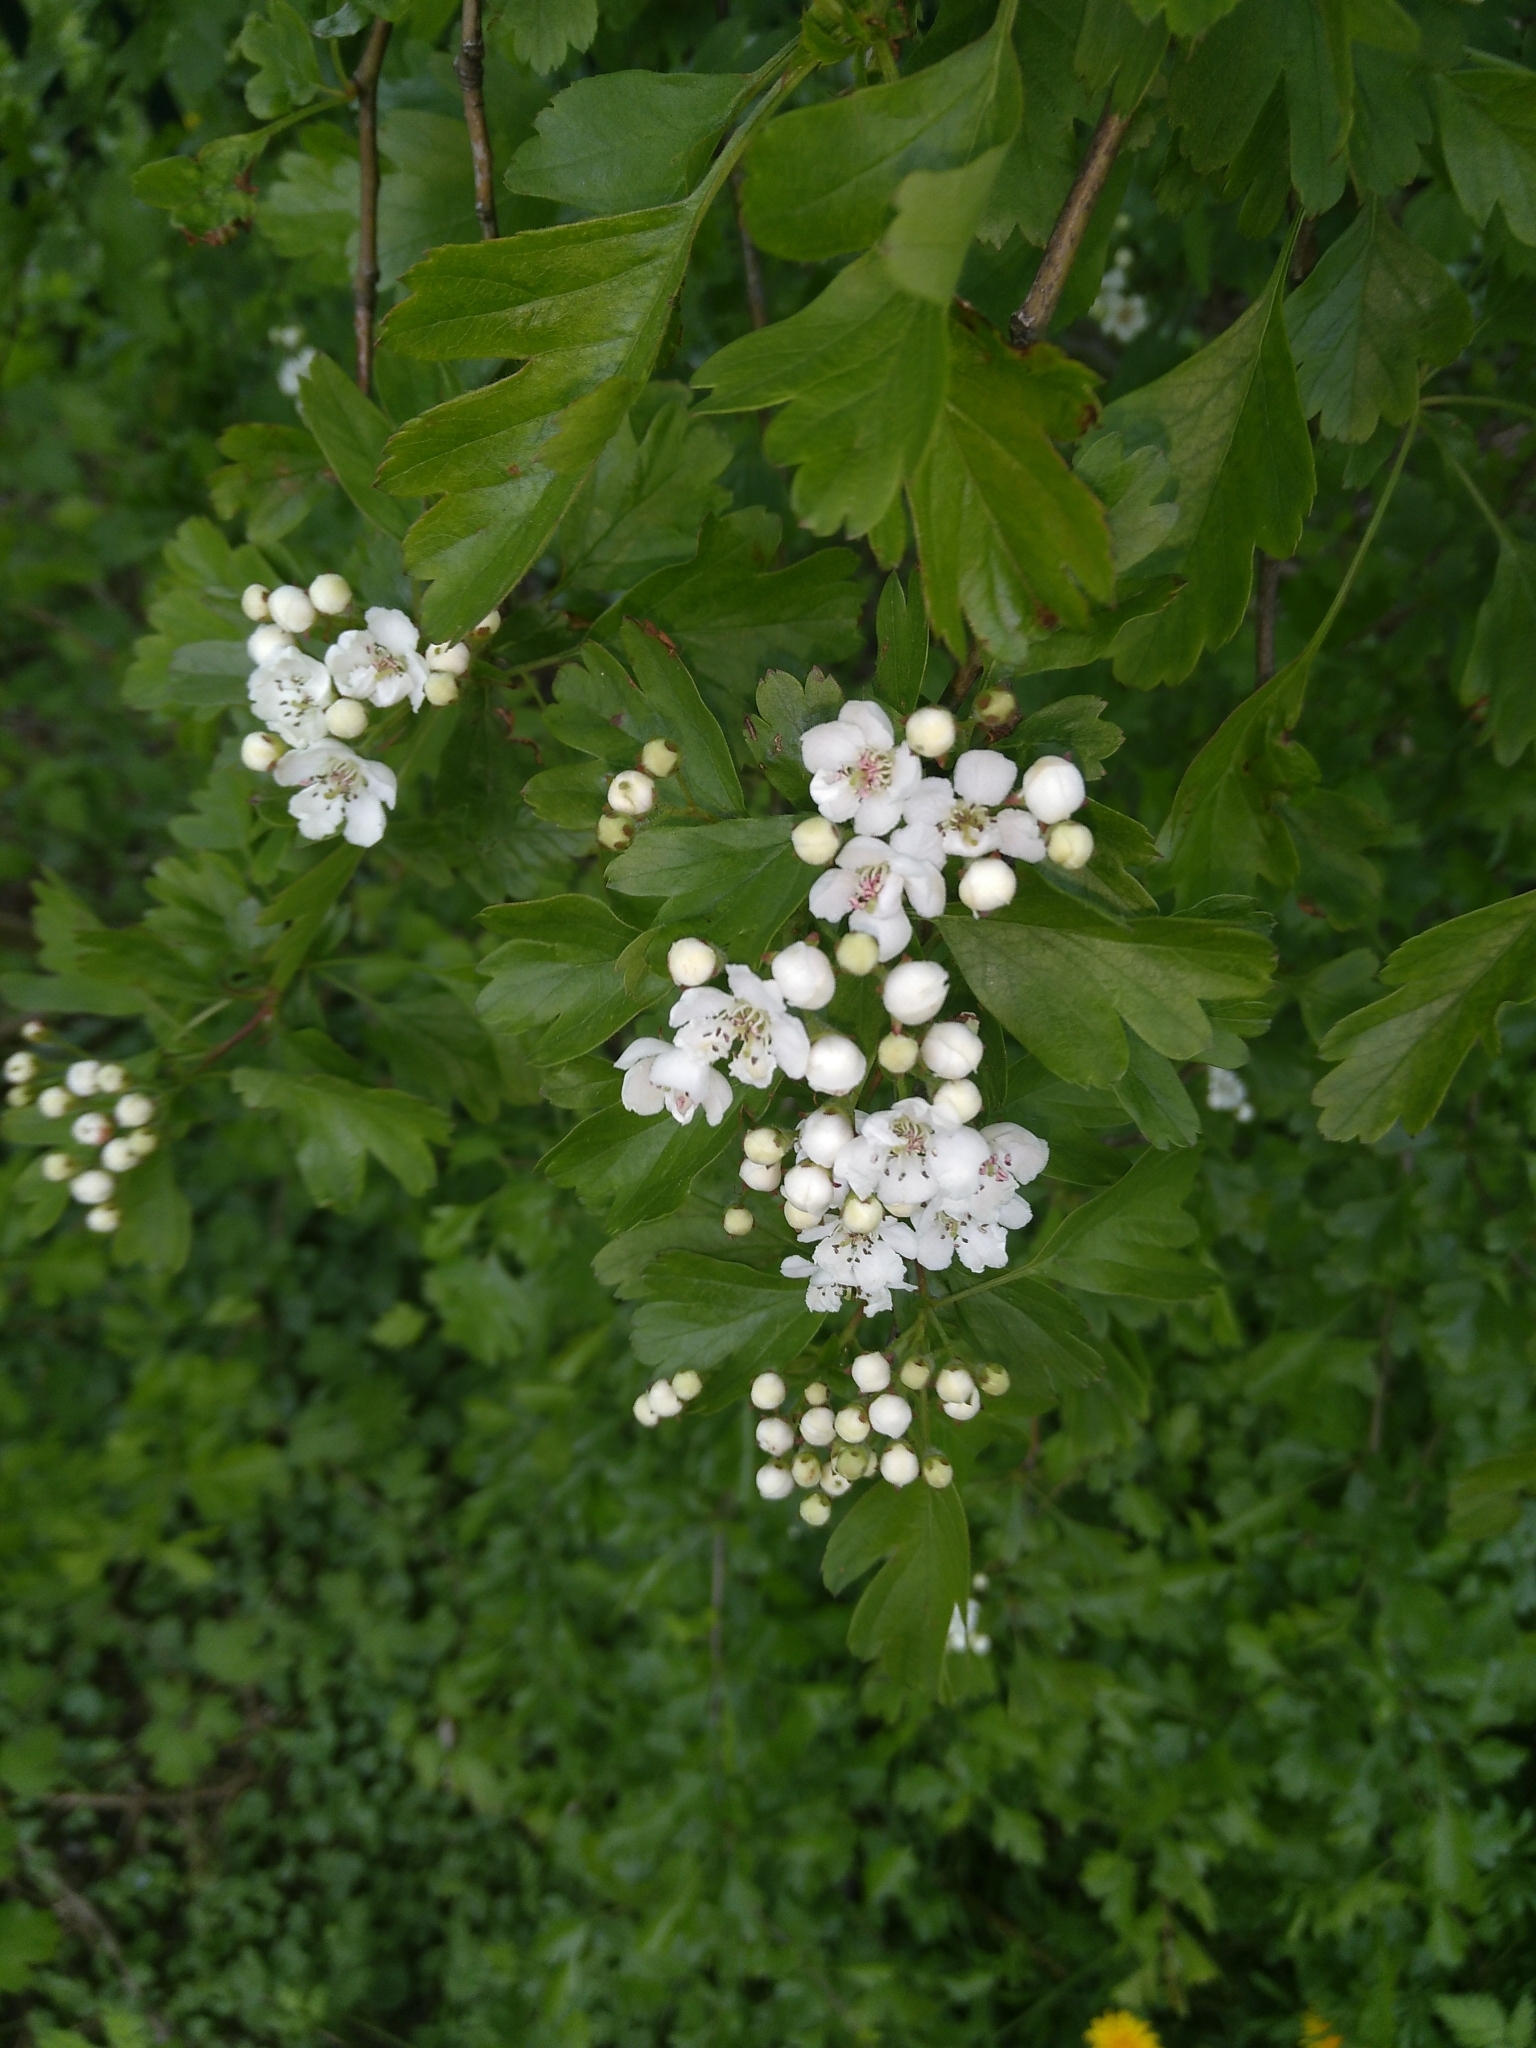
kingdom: Plantae
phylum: Tracheophyta
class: Magnoliopsida
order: Rosales
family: Rosaceae
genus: Crataegus
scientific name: Crataegus monogyna
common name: Hawthorn
